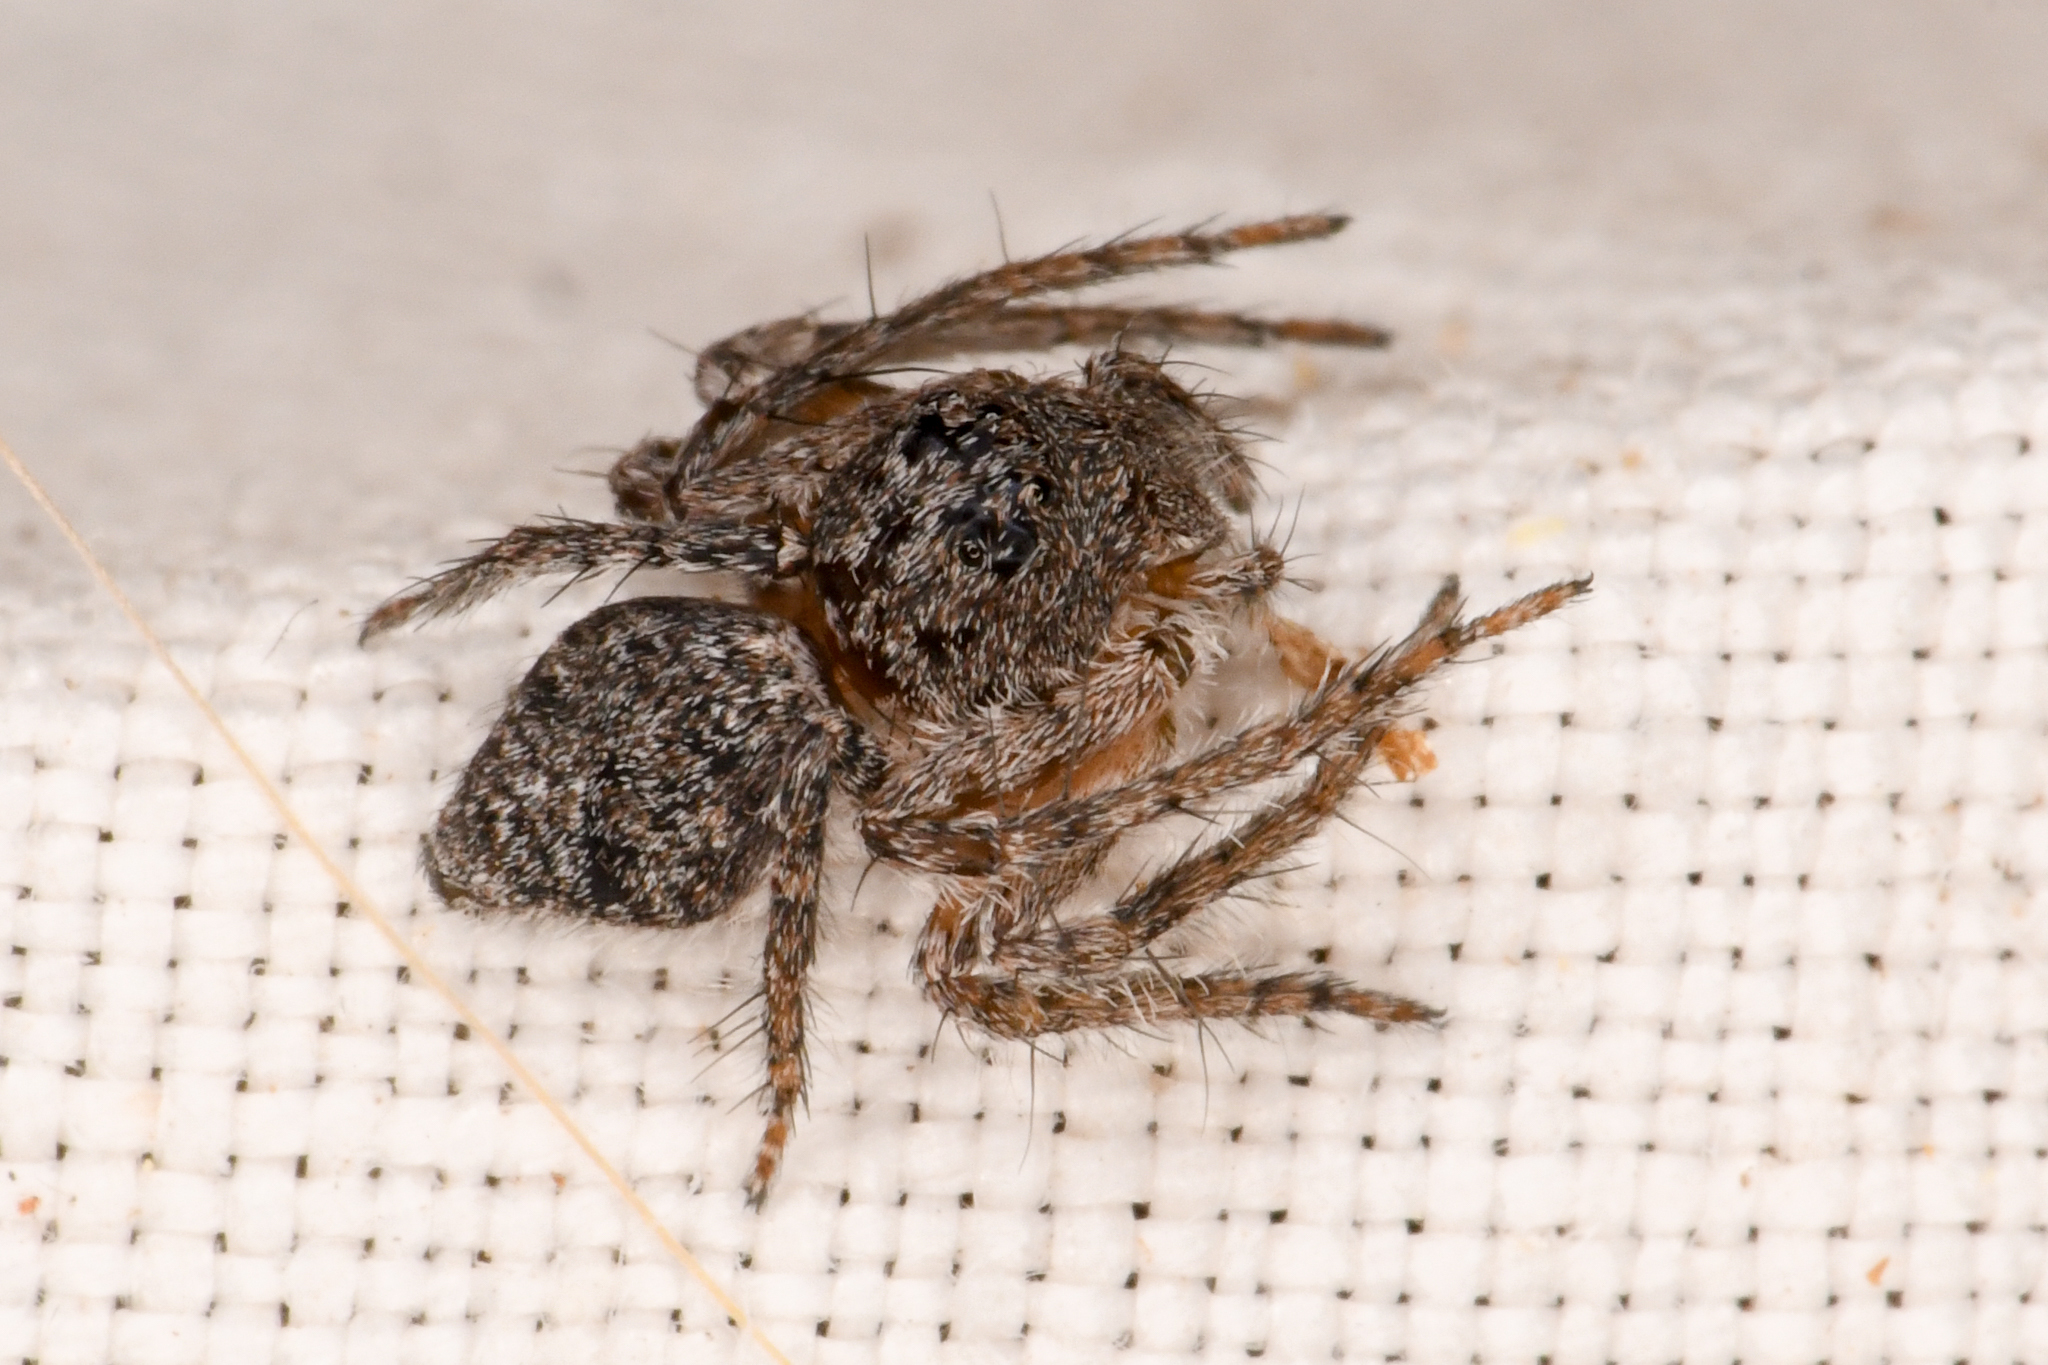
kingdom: Animalia
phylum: Arthropoda
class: Arachnida
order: Araneae
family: Oxyopidae
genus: Hamataliwa
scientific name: Hamataliwa grisea
